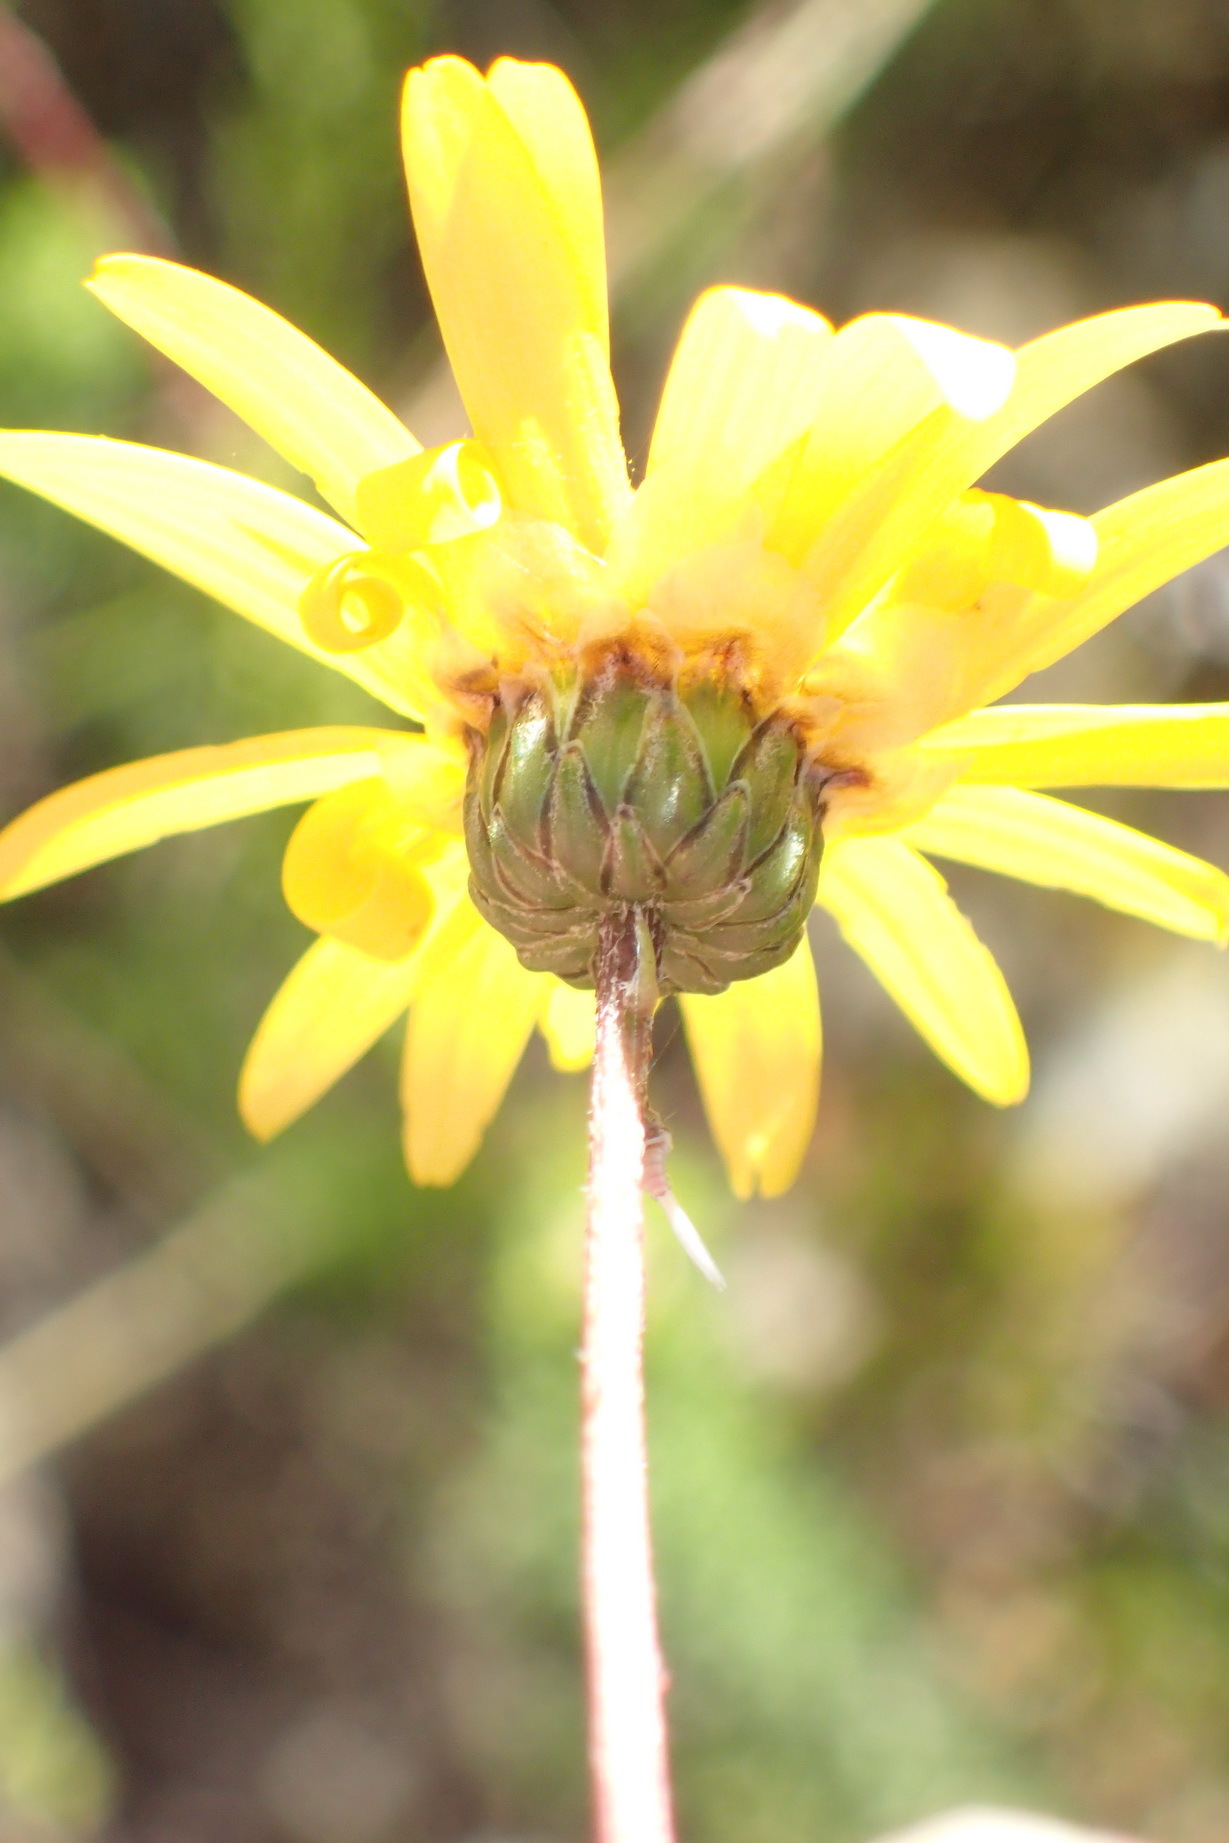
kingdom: Plantae
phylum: Tracheophyta
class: Magnoliopsida
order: Asterales
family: Asteraceae
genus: Ursinia
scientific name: Ursinia anethoides
